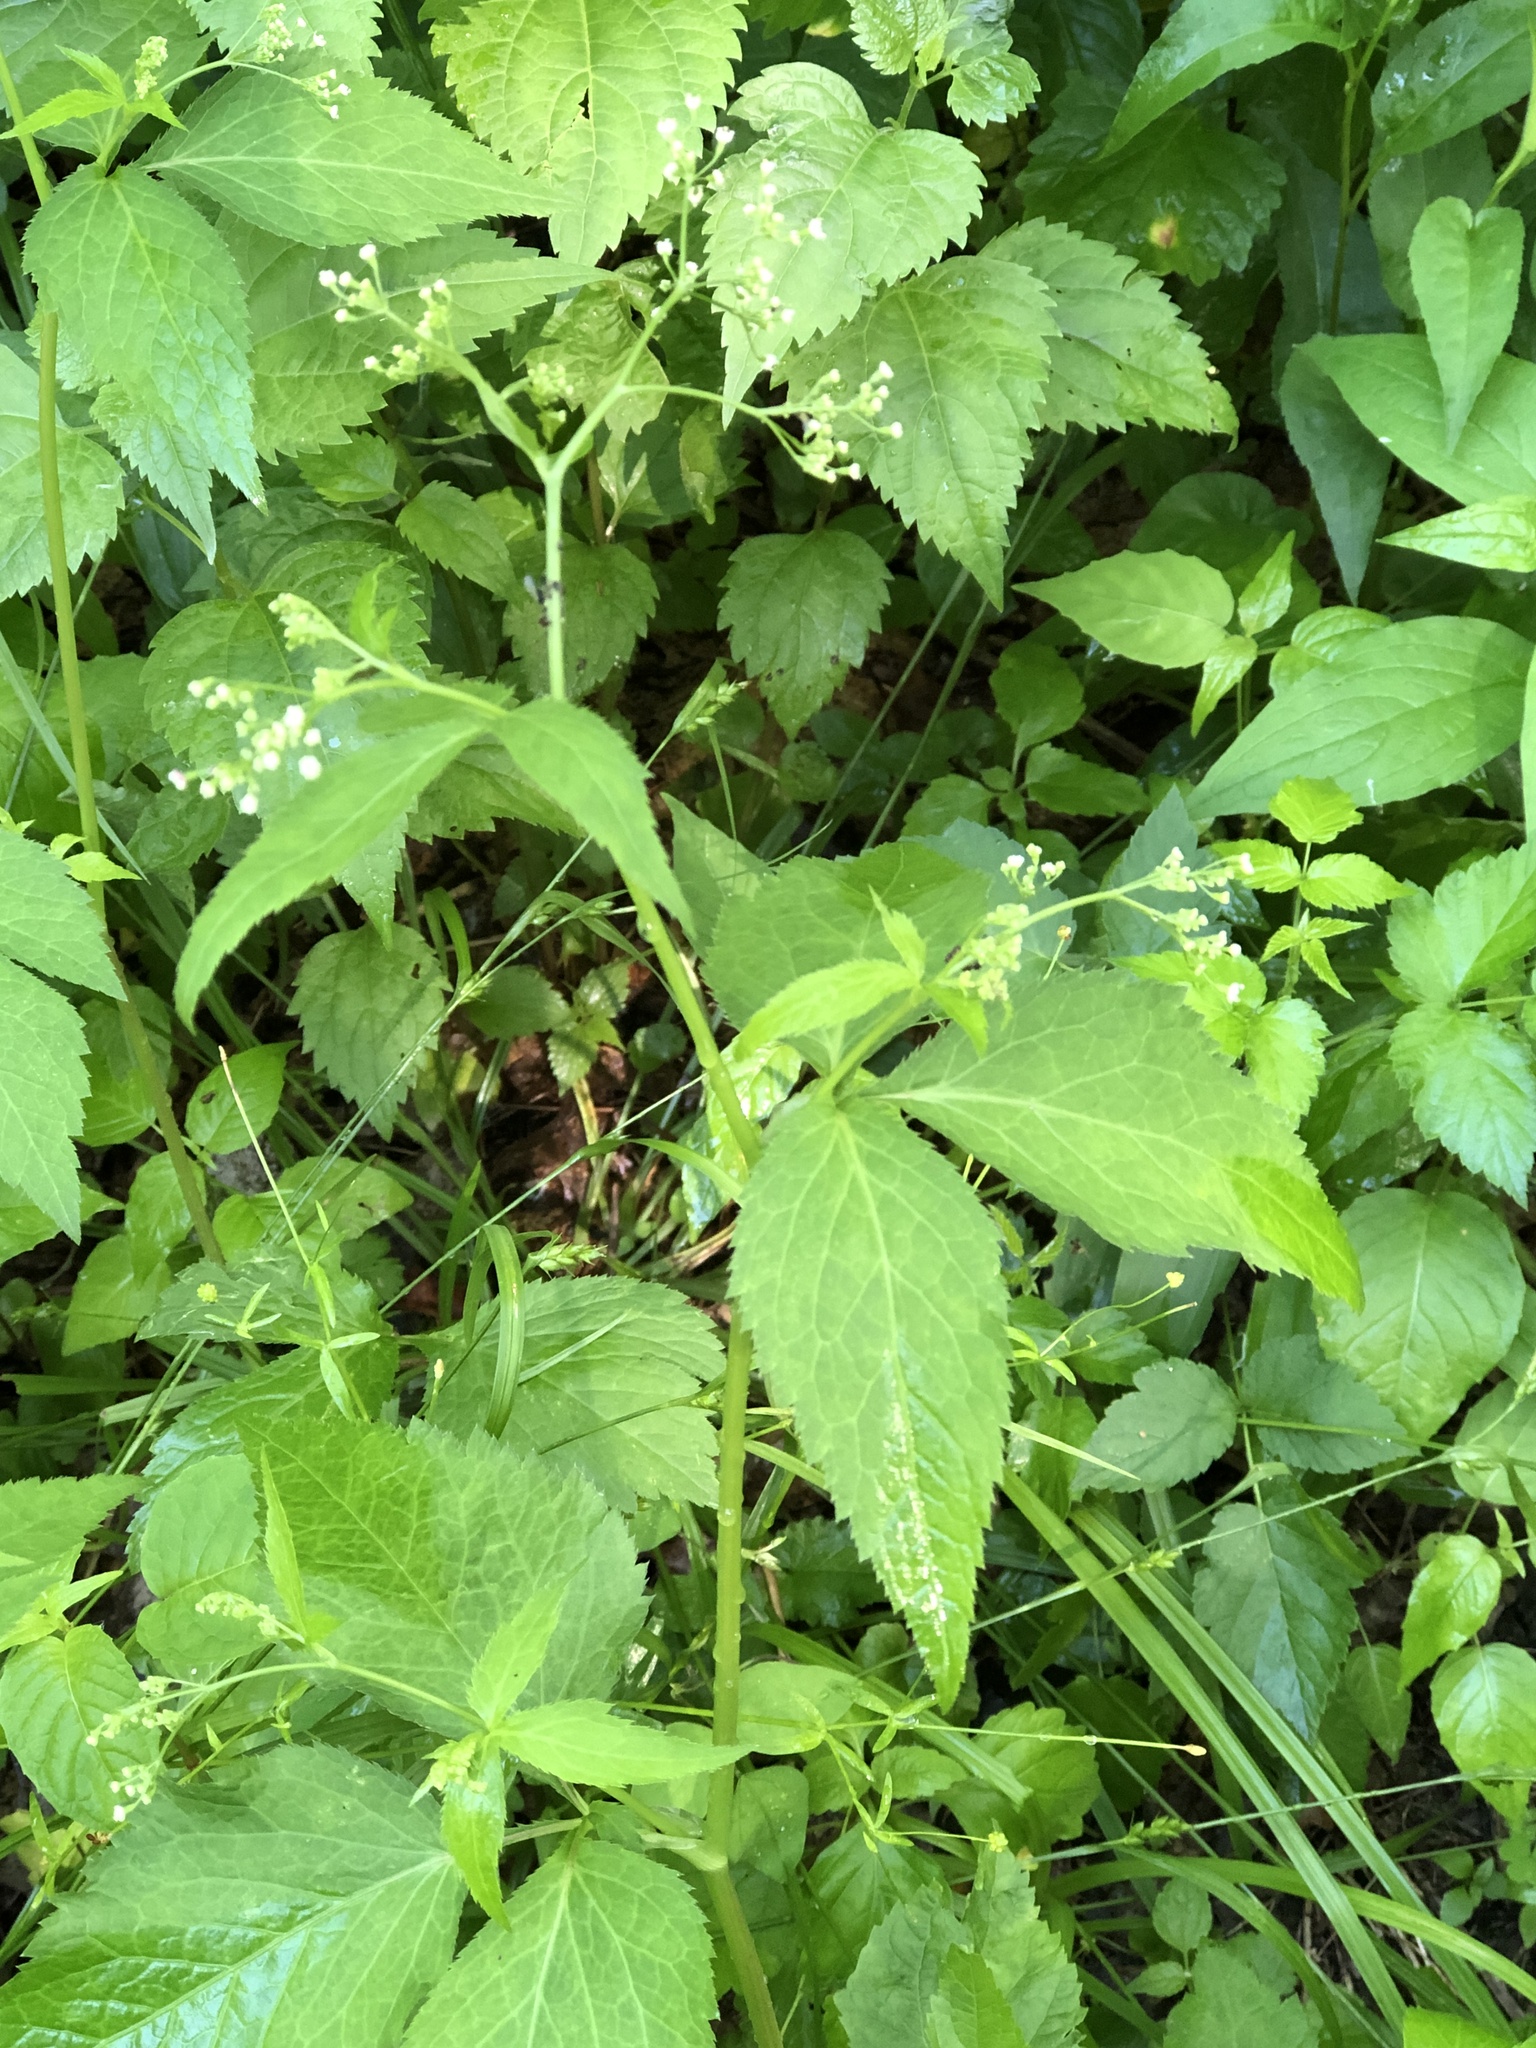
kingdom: Plantae
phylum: Tracheophyta
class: Magnoliopsida
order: Apiales
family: Apiaceae
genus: Cryptotaenia
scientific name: Cryptotaenia canadensis
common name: Honewort
